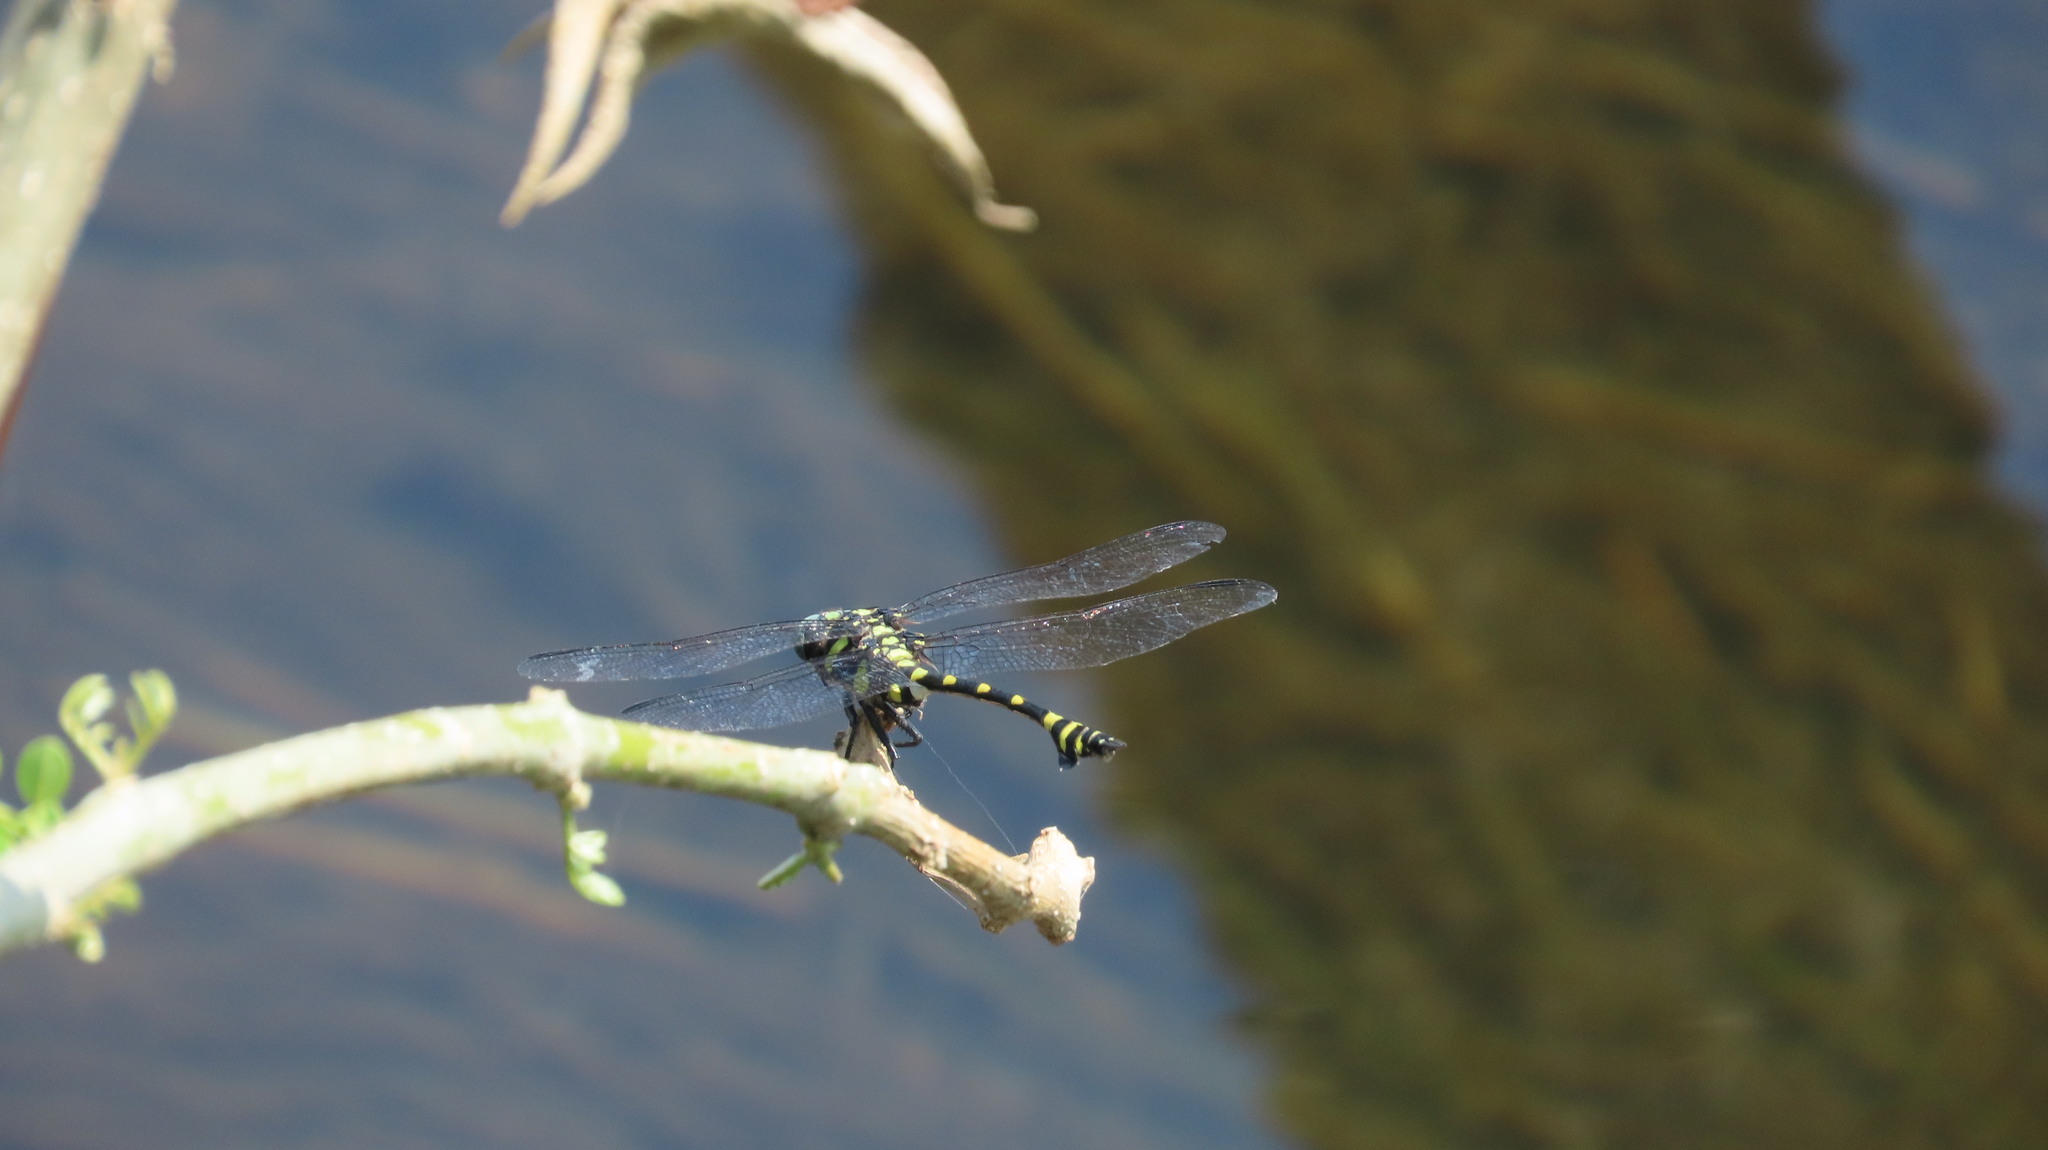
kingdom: Animalia
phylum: Arthropoda
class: Insecta
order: Odonata
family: Gomphidae
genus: Ictinogomphus
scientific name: Ictinogomphus rapax
